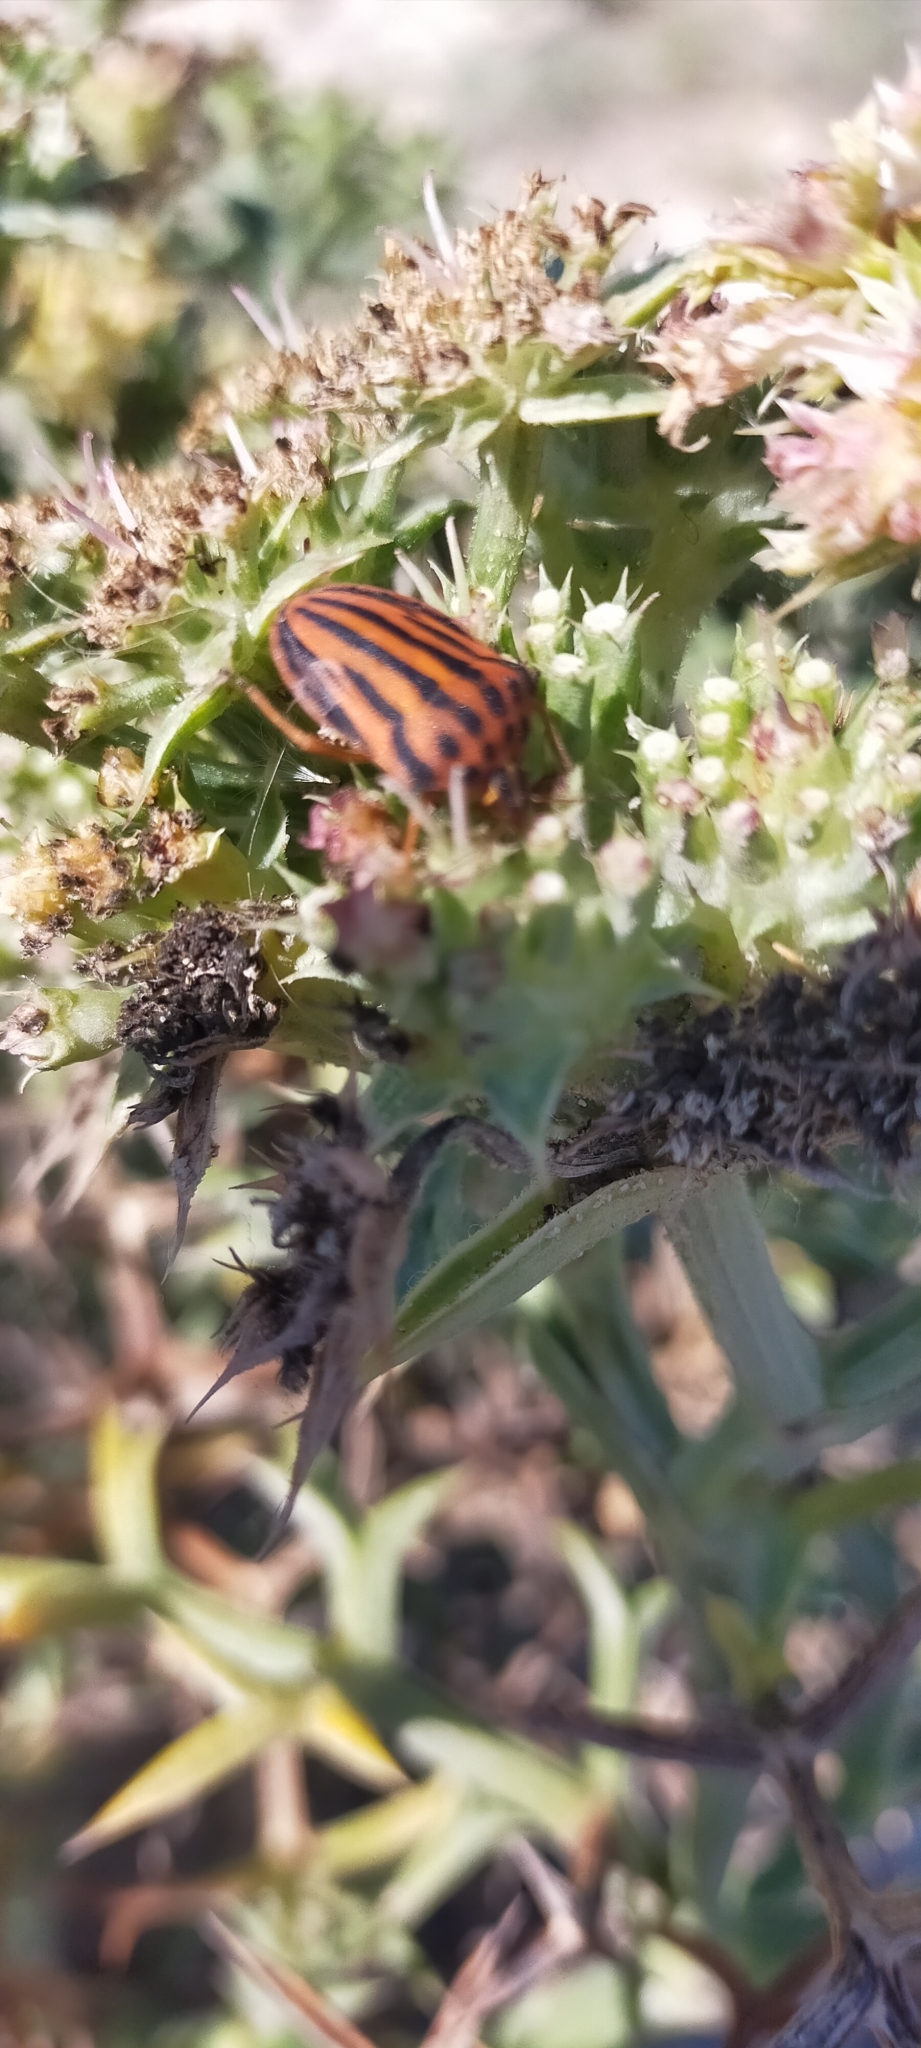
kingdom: Animalia
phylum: Arthropoda
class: Insecta
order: Hemiptera
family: Pentatomidae
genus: Graphosoma
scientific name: Graphosoma semipunctatum
